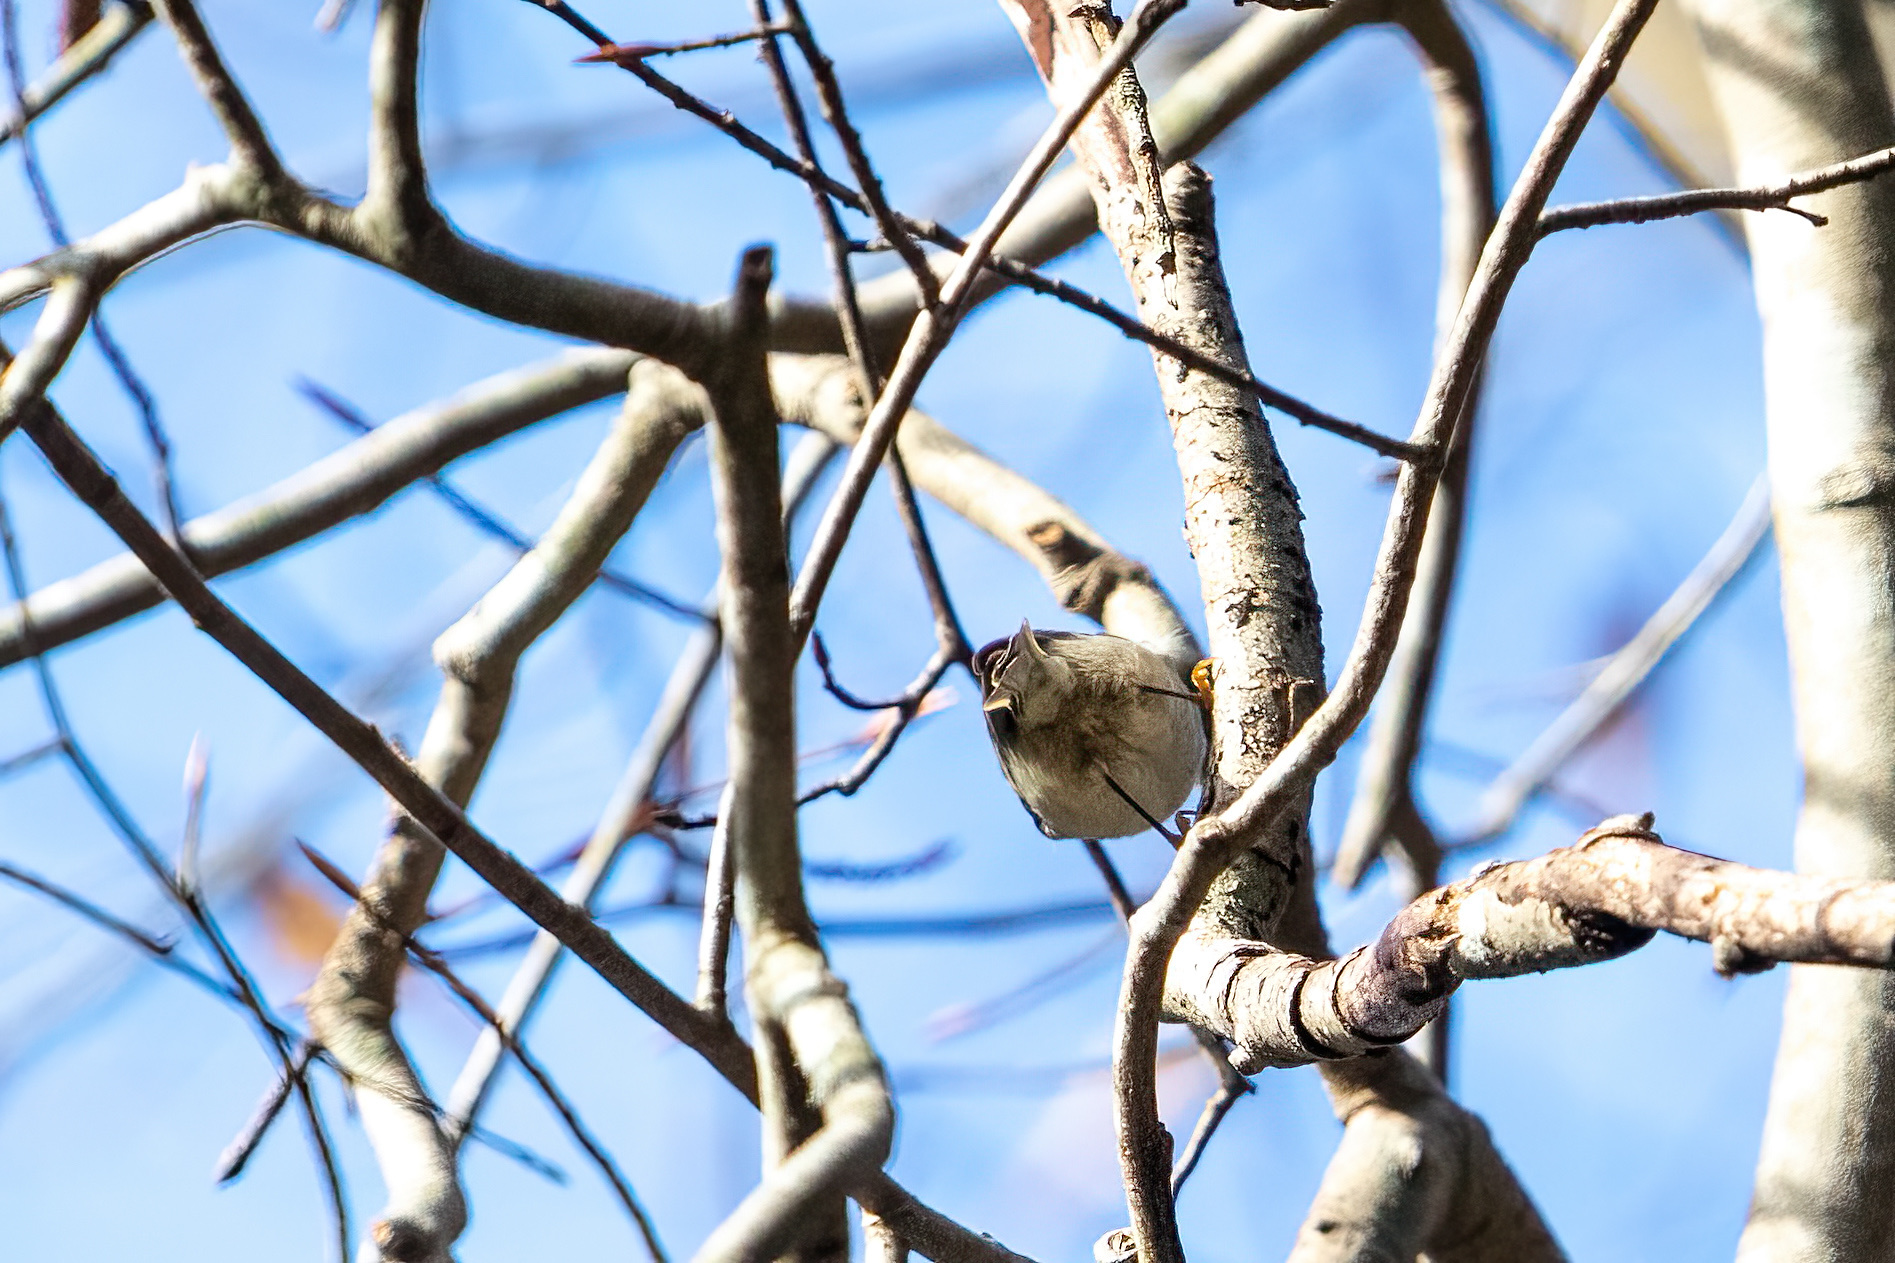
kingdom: Animalia
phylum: Chordata
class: Aves
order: Passeriformes
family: Regulidae
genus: Regulus
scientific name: Regulus satrapa
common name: Golden-crowned kinglet
